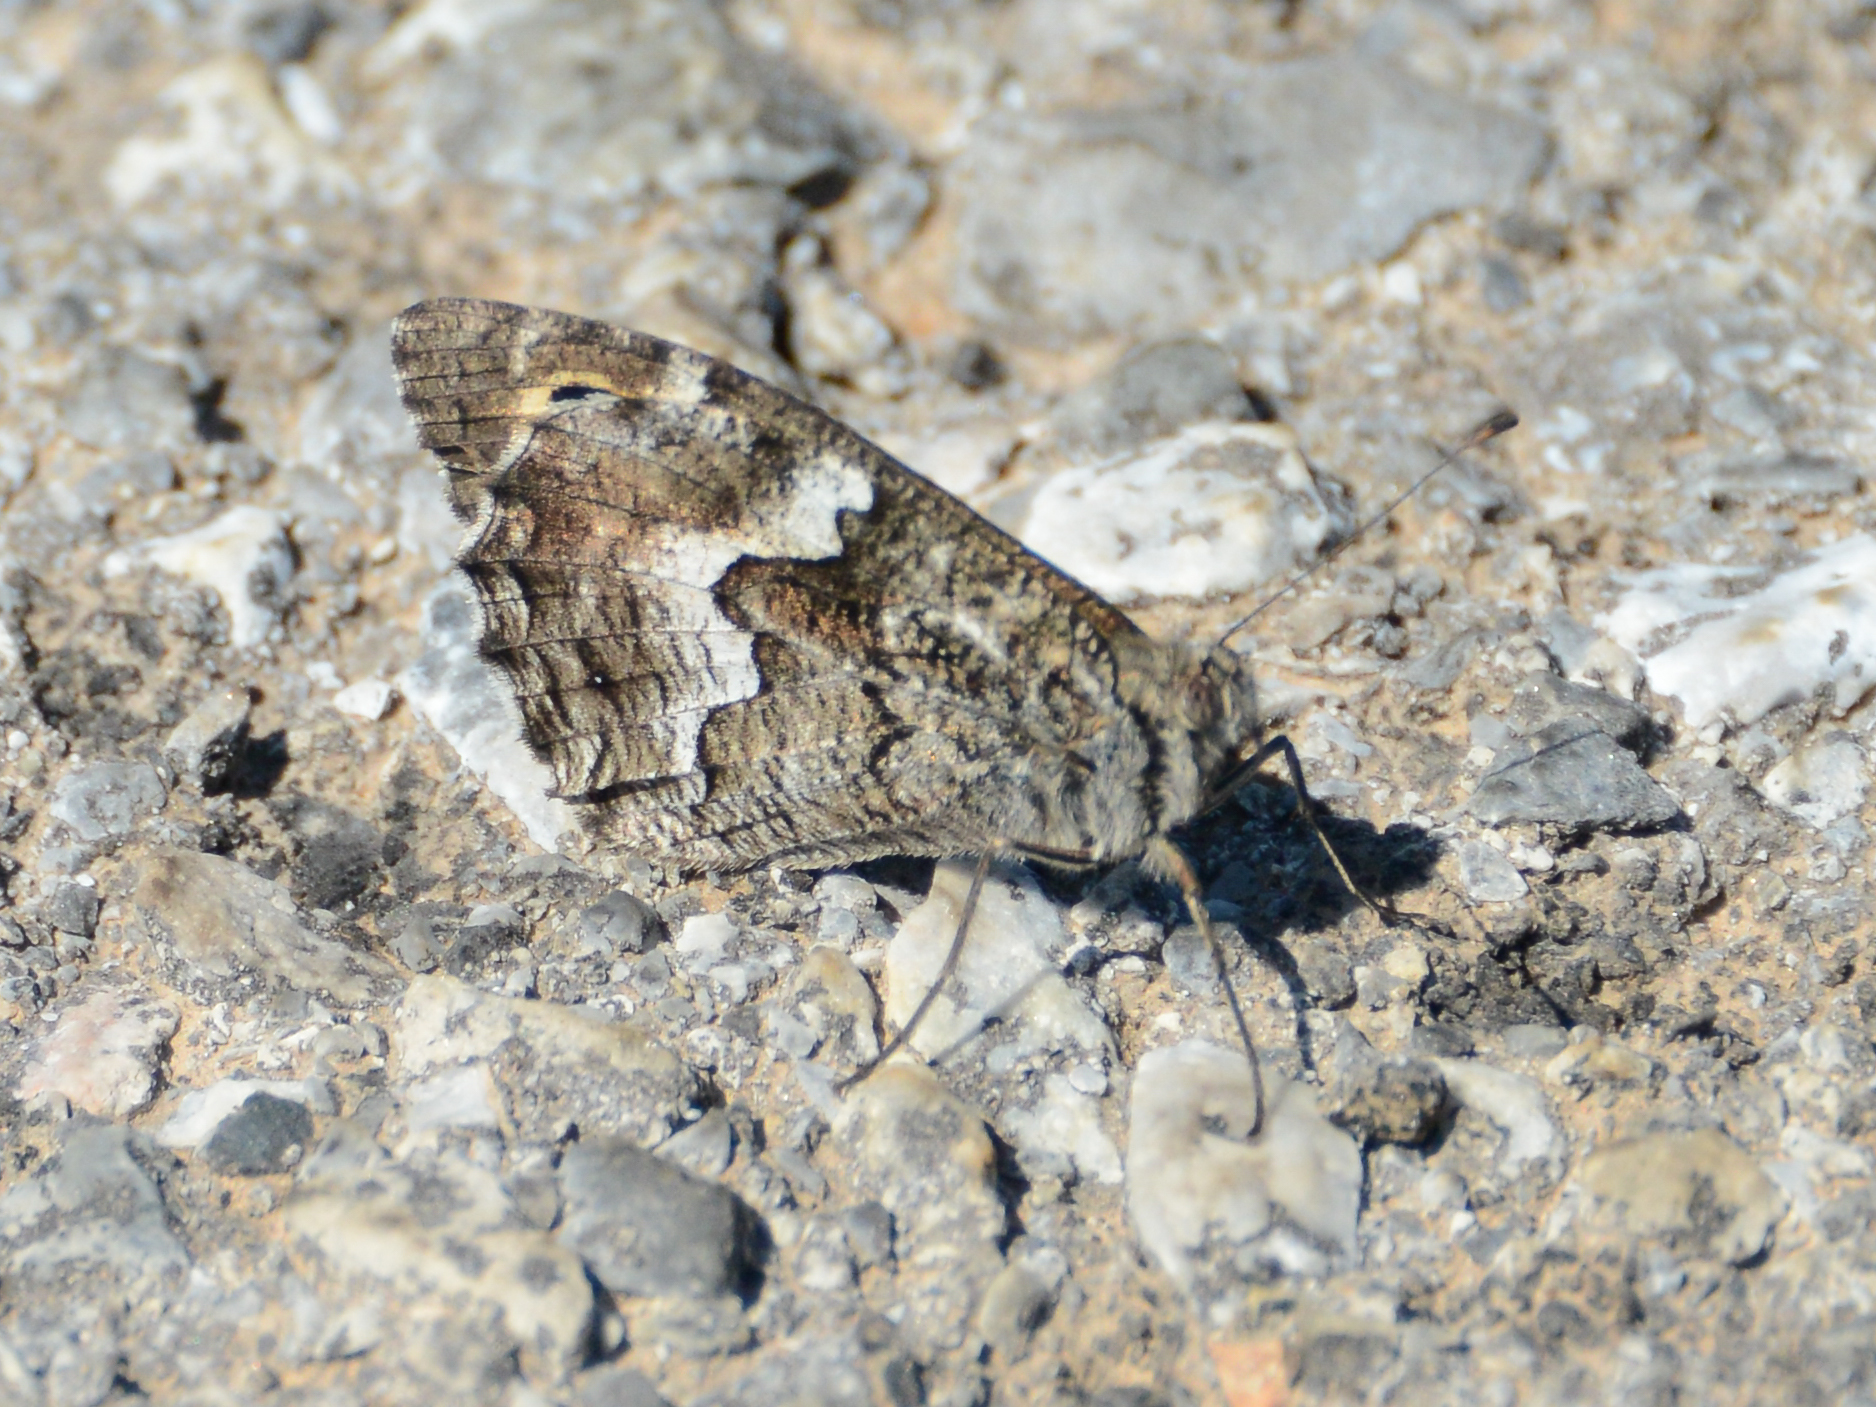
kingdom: Animalia
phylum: Arthropoda
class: Insecta
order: Lepidoptera
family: Nymphalidae
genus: Hipparchia
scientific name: Hipparchia cretica
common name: Cretan grayling
